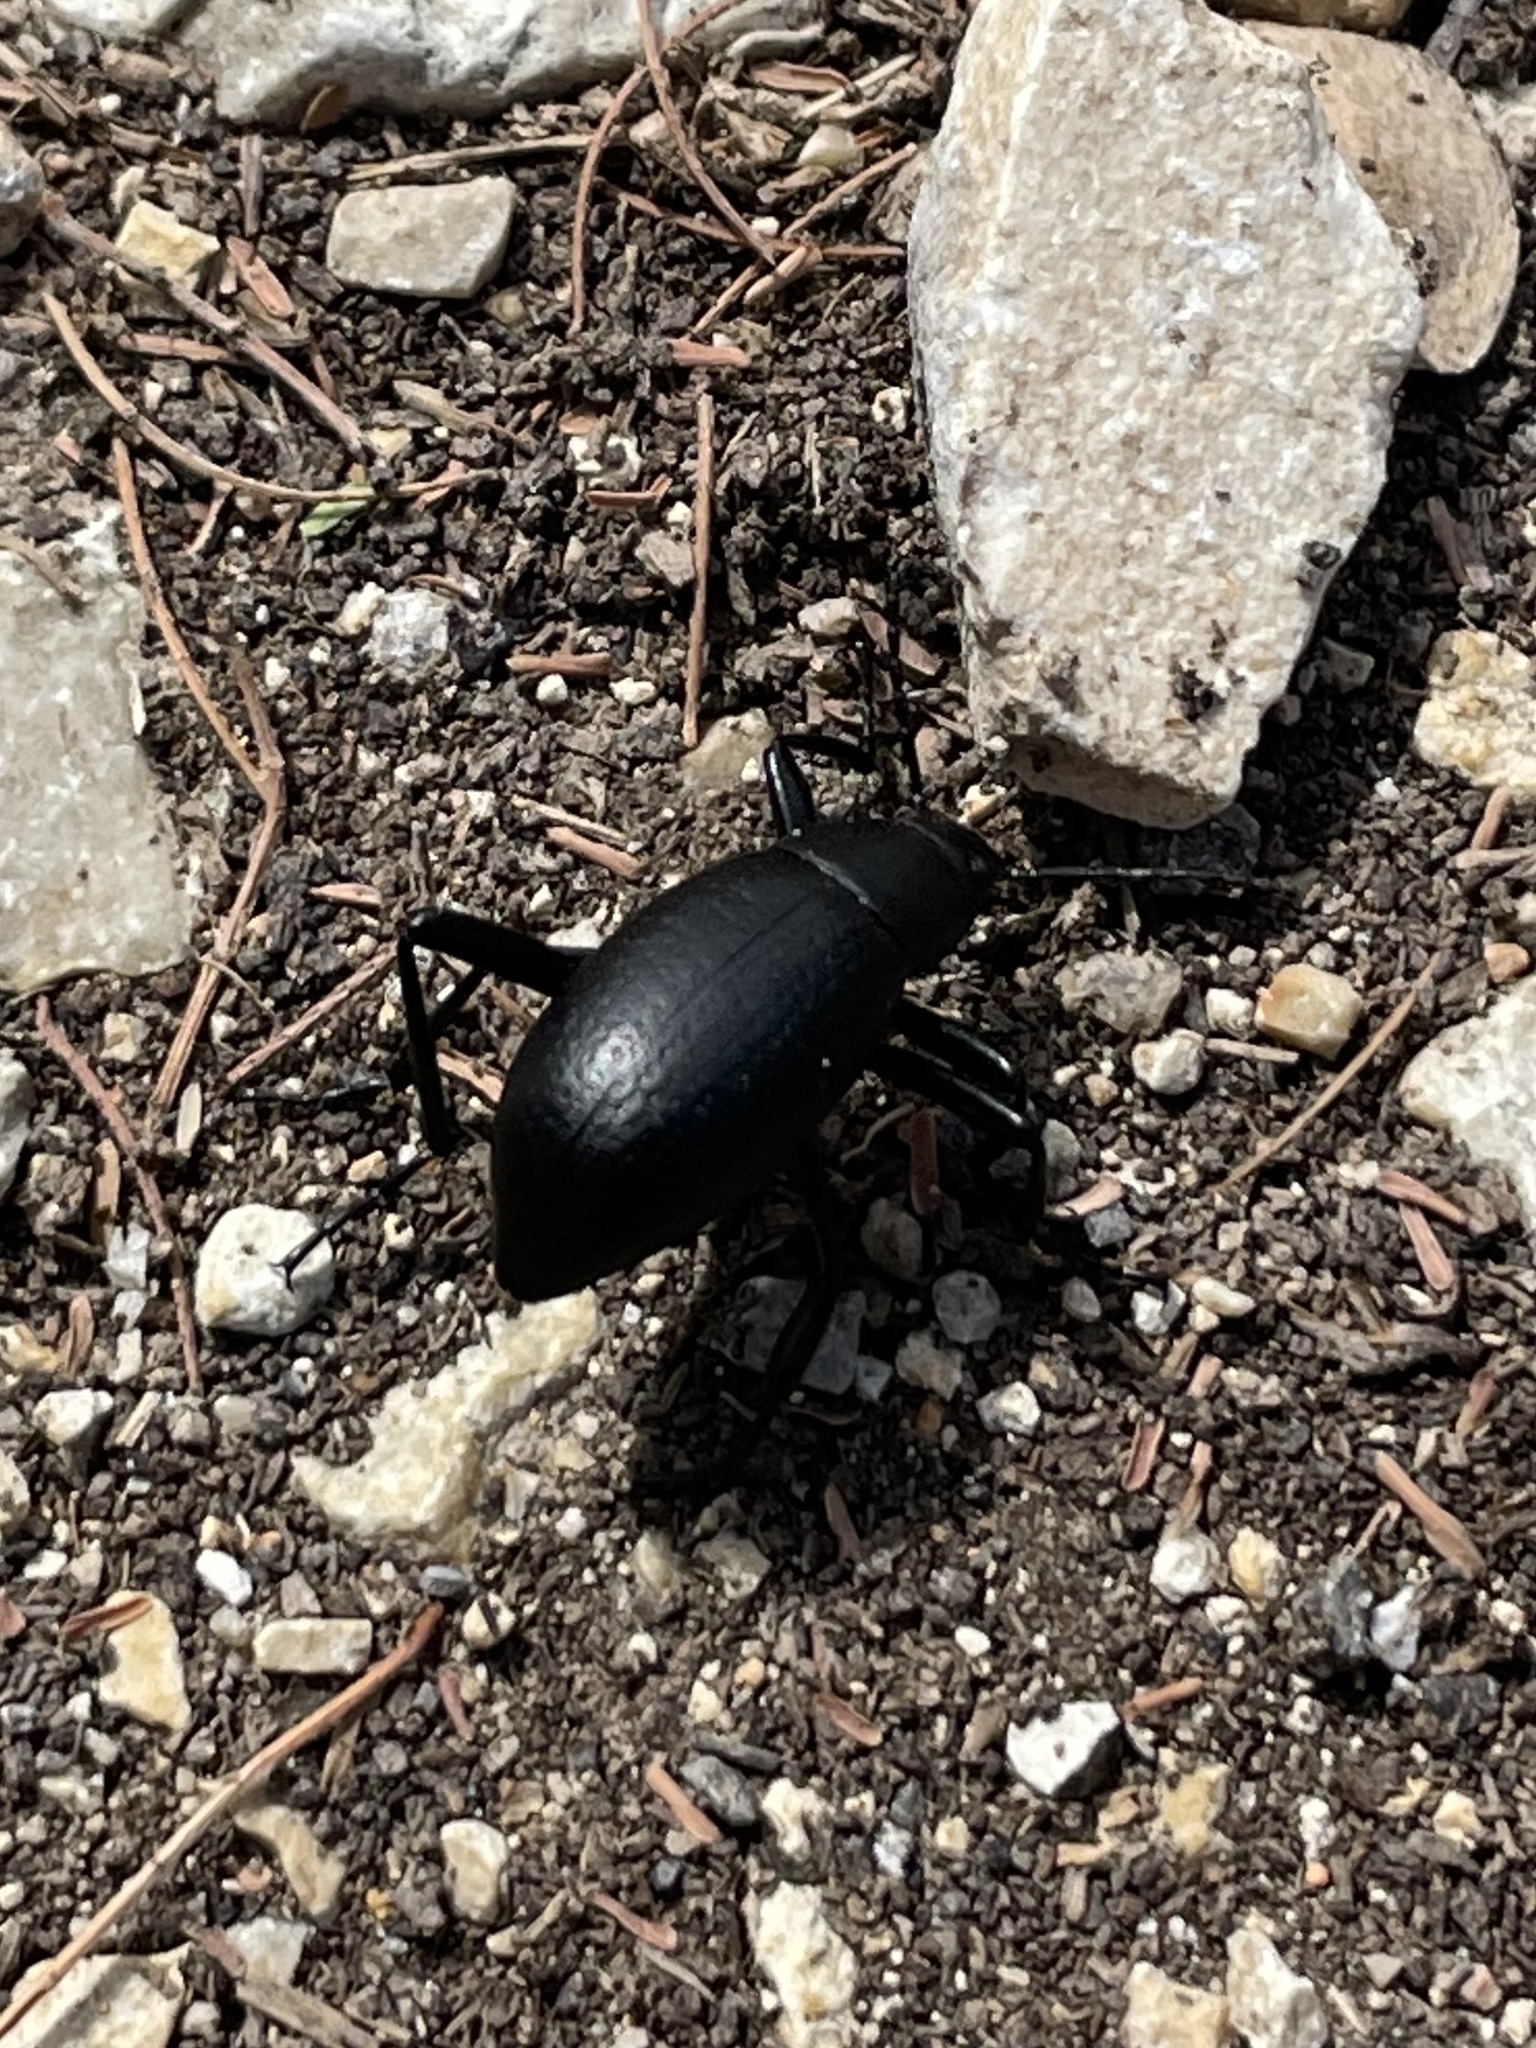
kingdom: Animalia
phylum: Arthropoda
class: Insecta
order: Coleoptera
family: Tenebrionidae
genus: Eleodes
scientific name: Eleodes goryi
